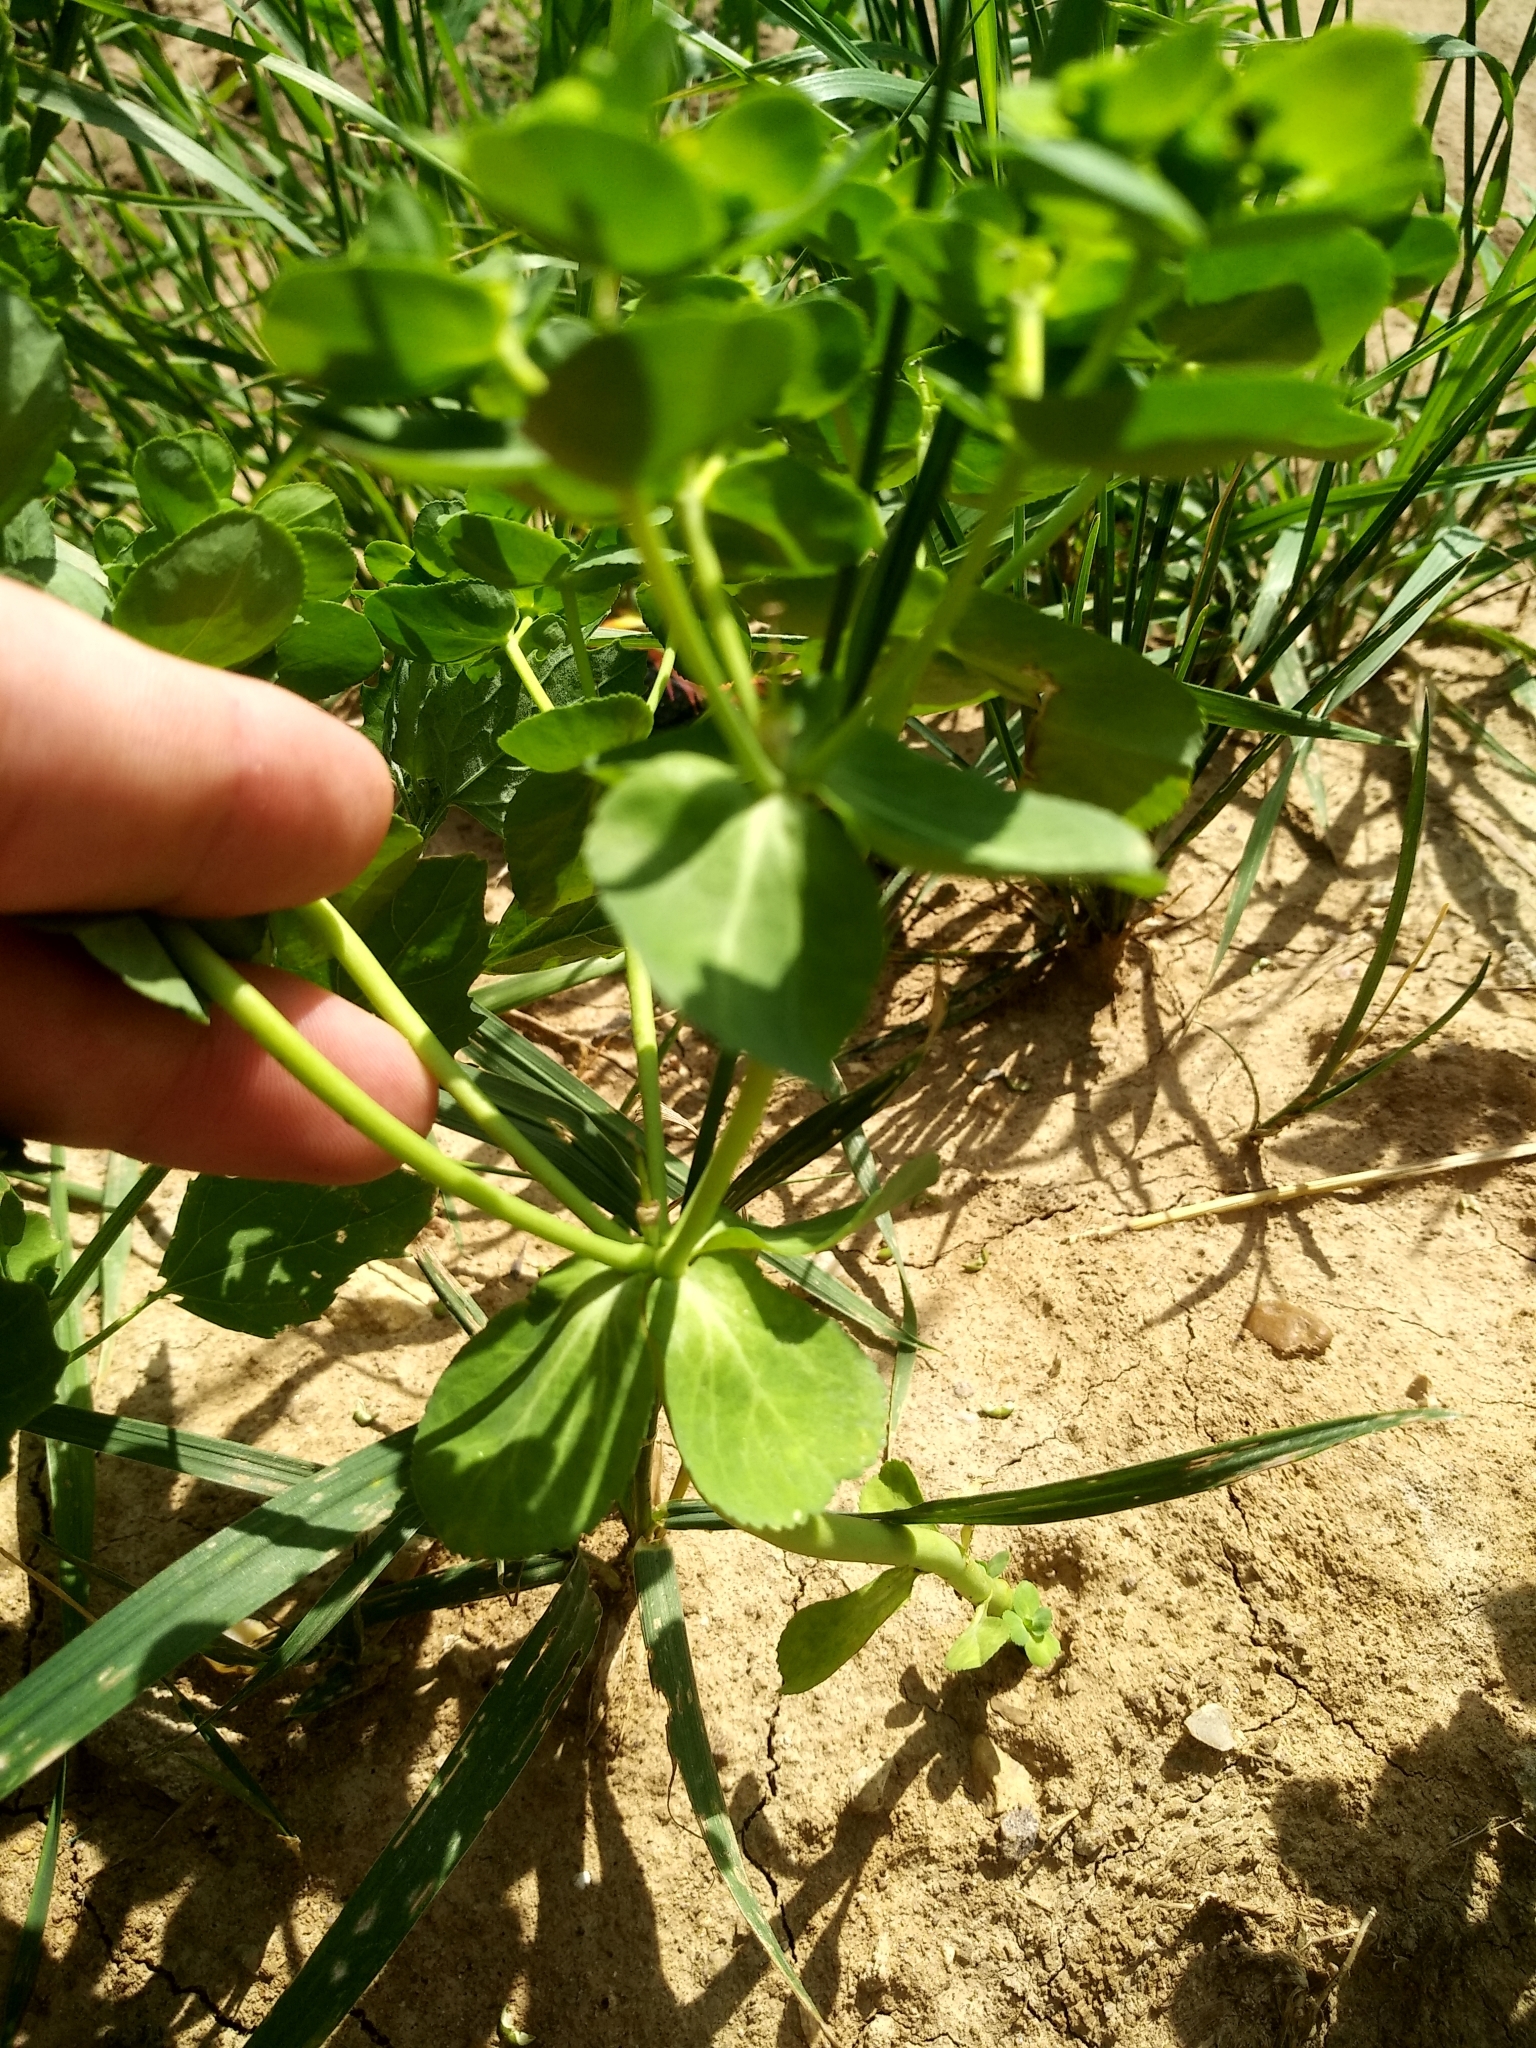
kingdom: Plantae
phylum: Tracheophyta
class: Magnoliopsida
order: Malpighiales
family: Euphorbiaceae
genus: Euphorbia
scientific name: Euphorbia helioscopia
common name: Sun spurge
